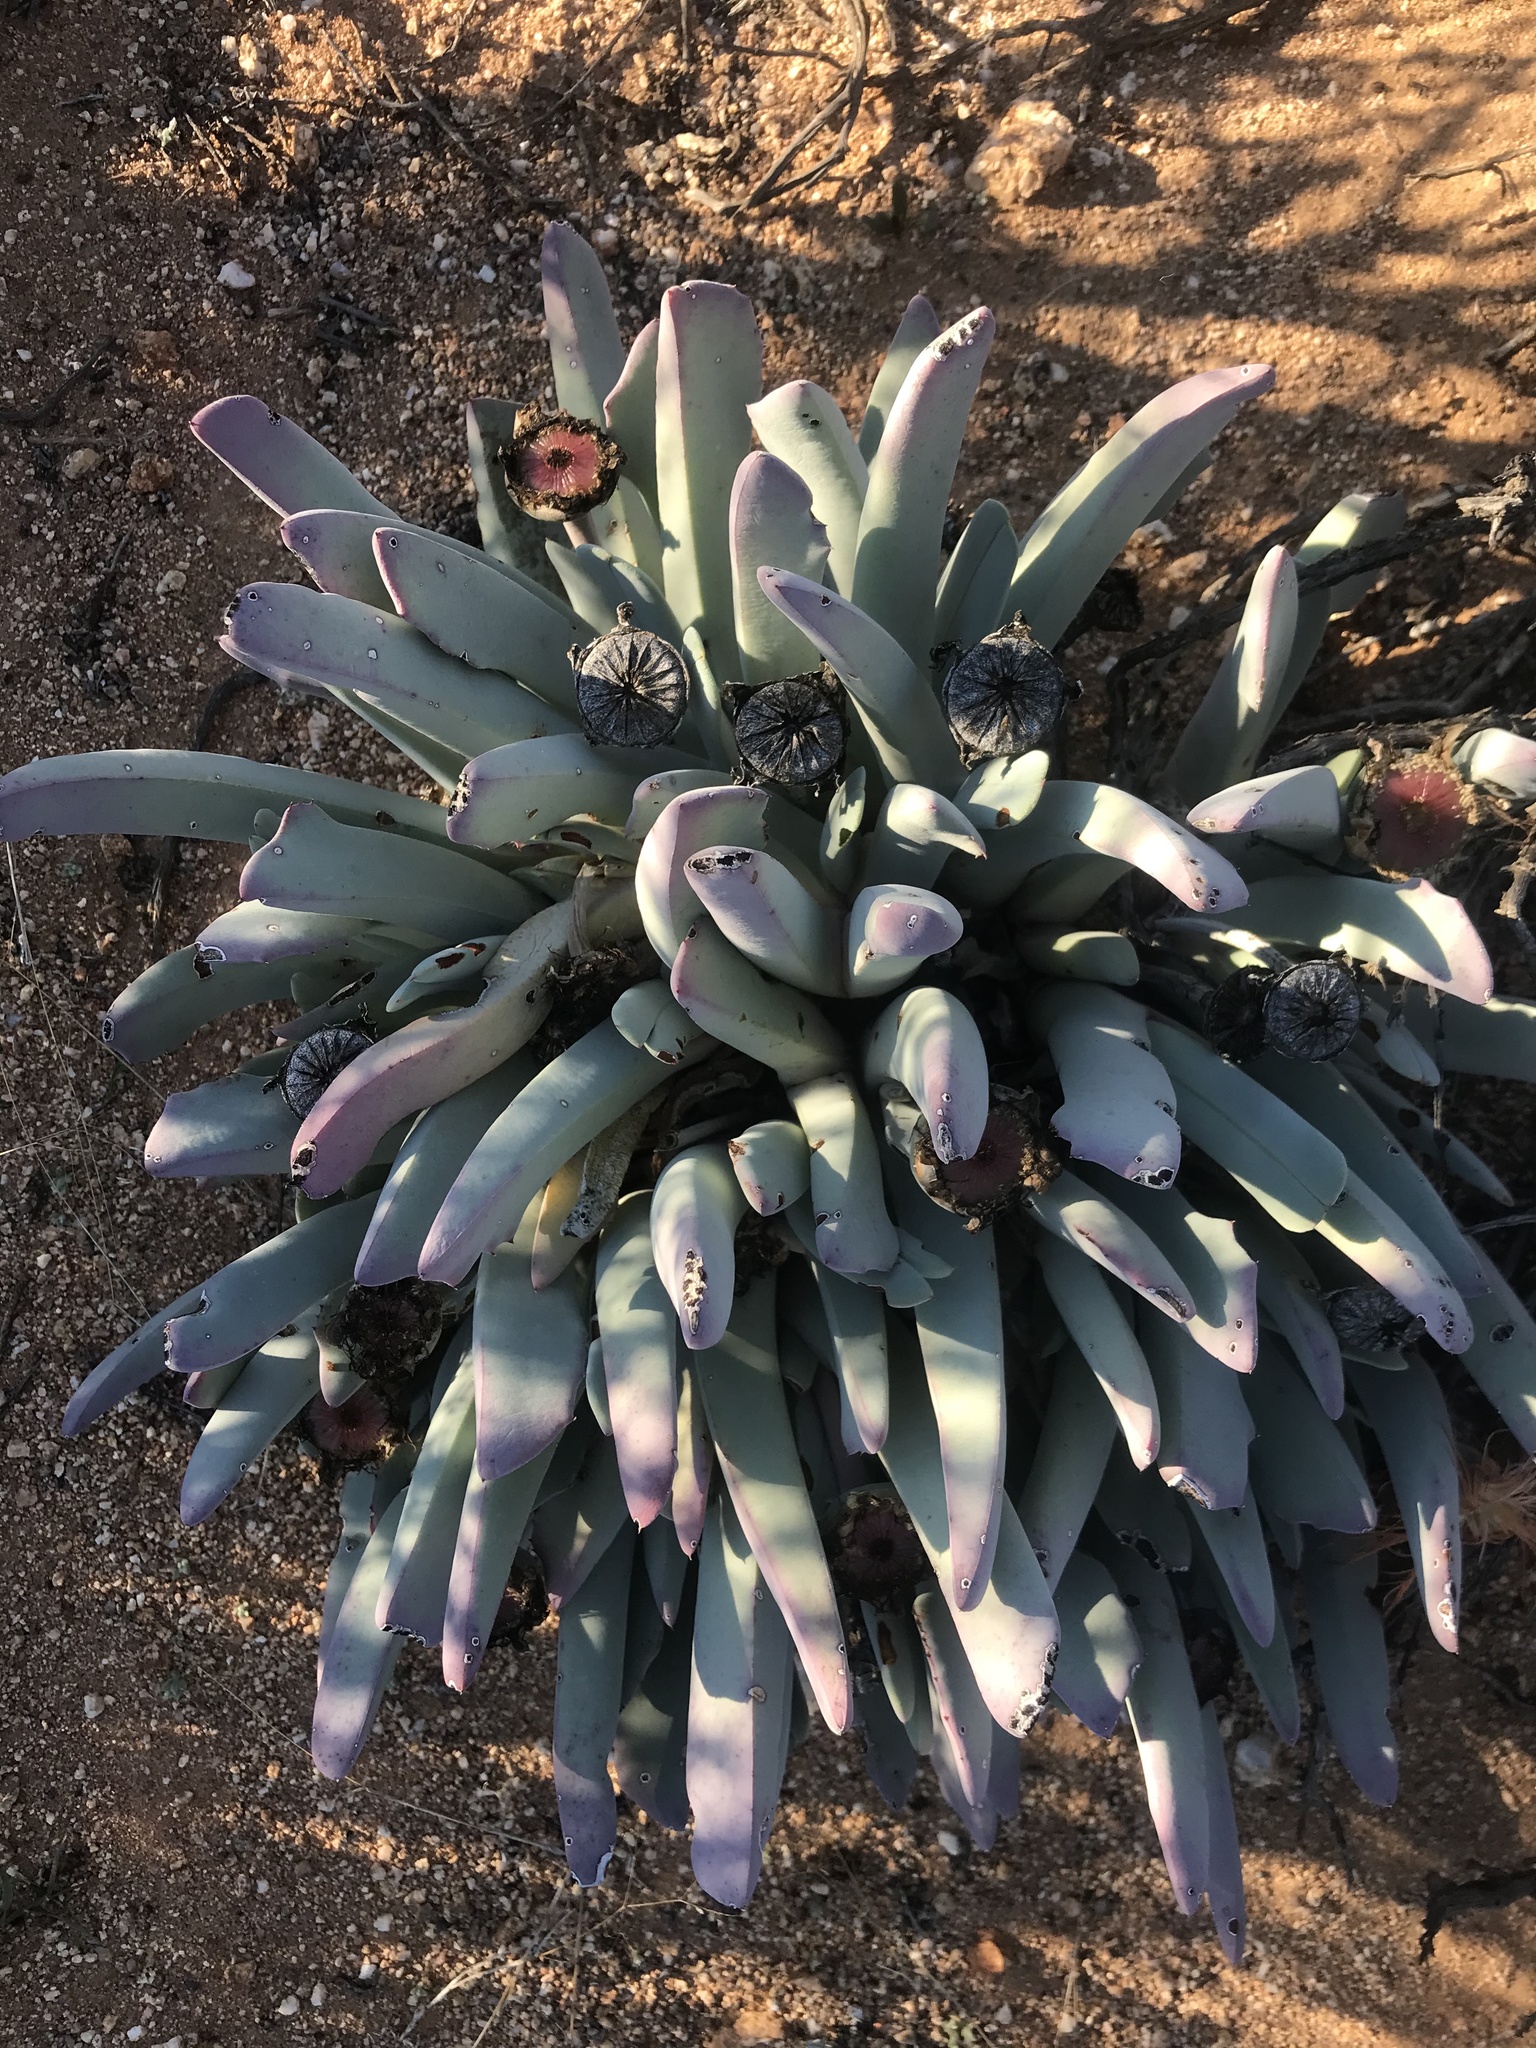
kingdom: Plantae
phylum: Tracheophyta
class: Magnoliopsida
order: Caryophyllales
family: Aizoaceae
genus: Cheiridopsis
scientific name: Cheiridopsis denticulata
